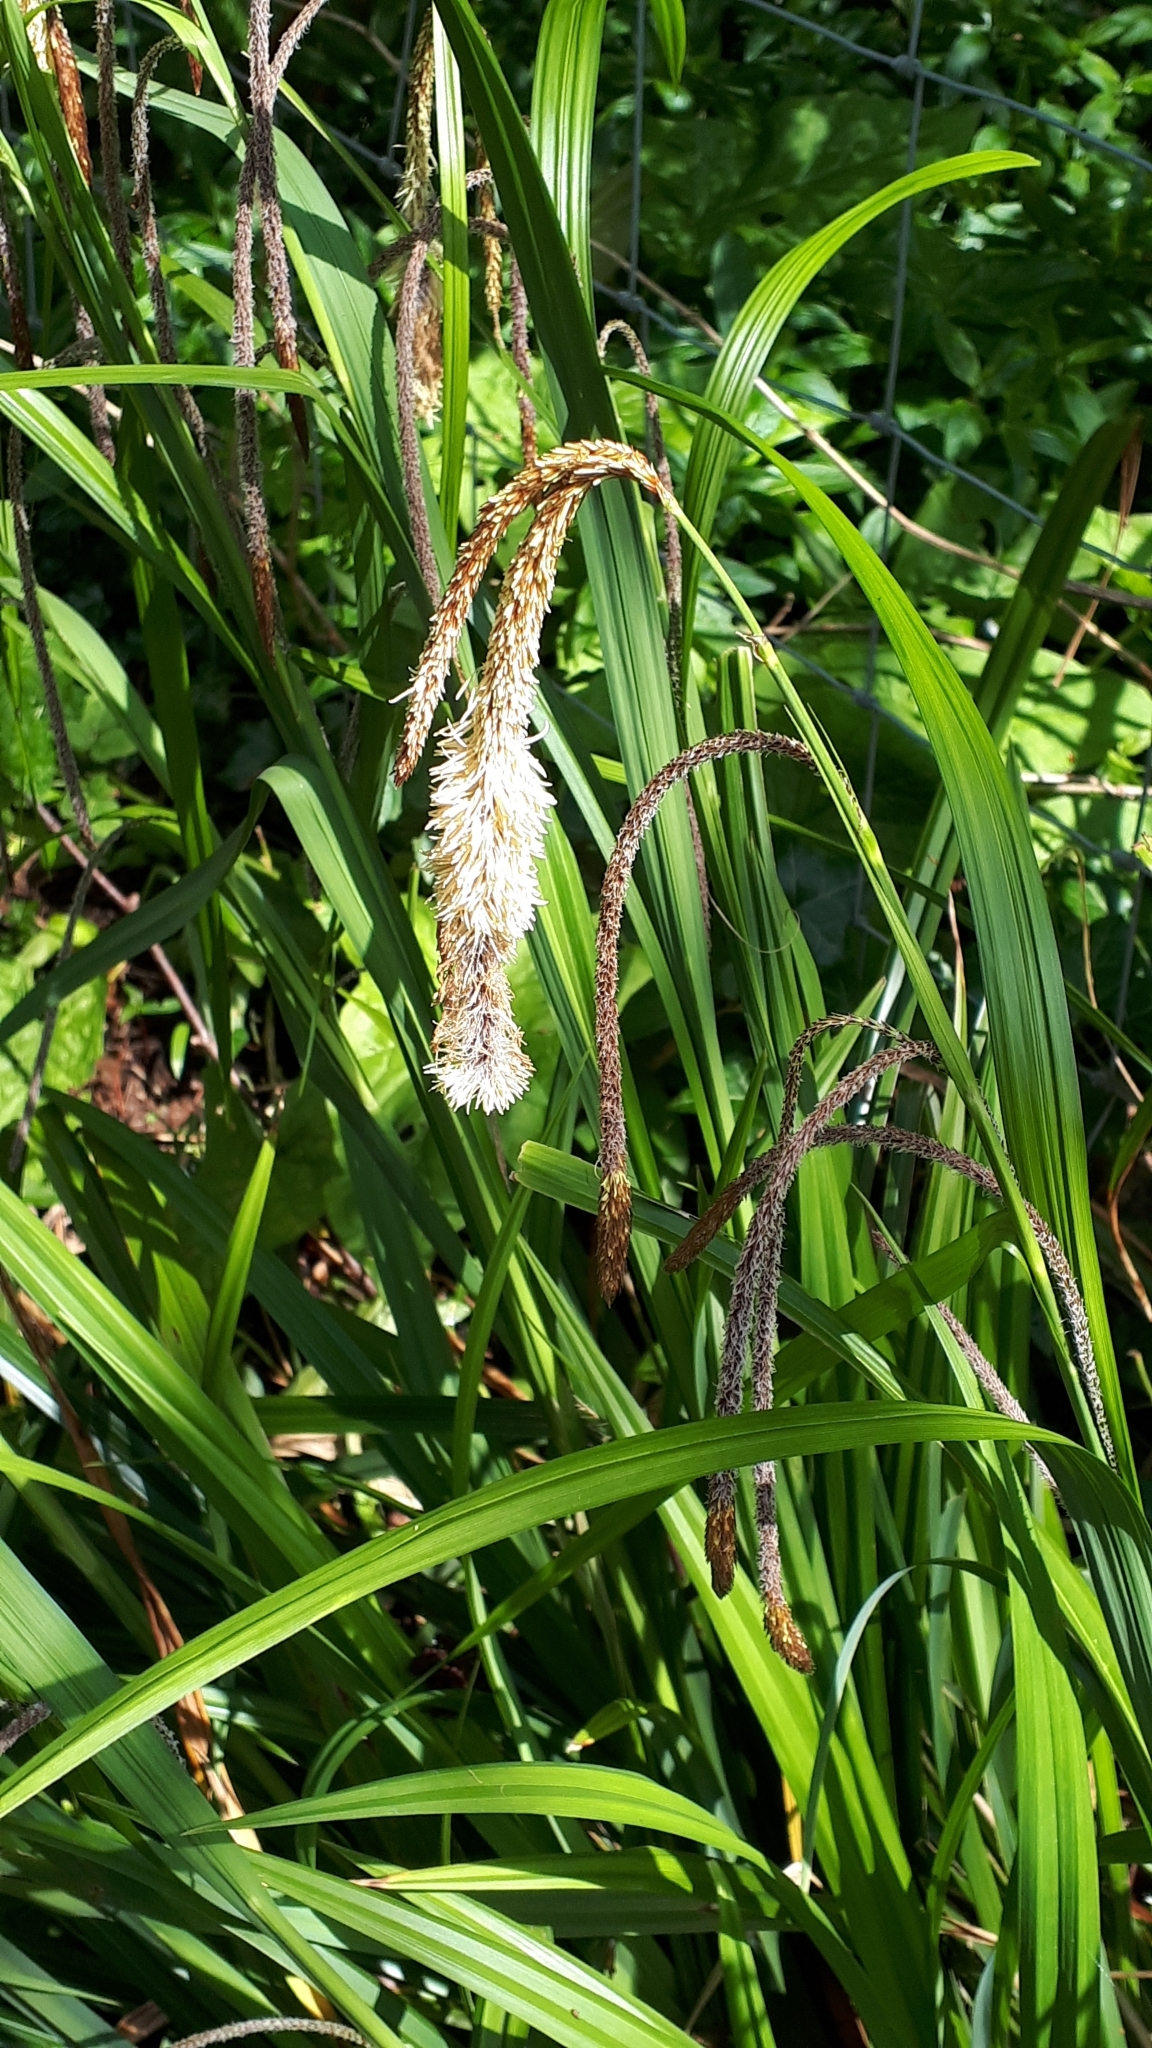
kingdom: Plantae
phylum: Tracheophyta
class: Liliopsida
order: Poales
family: Cyperaceae
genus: Carex
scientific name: Carex pendula
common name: Pendulous sedge
